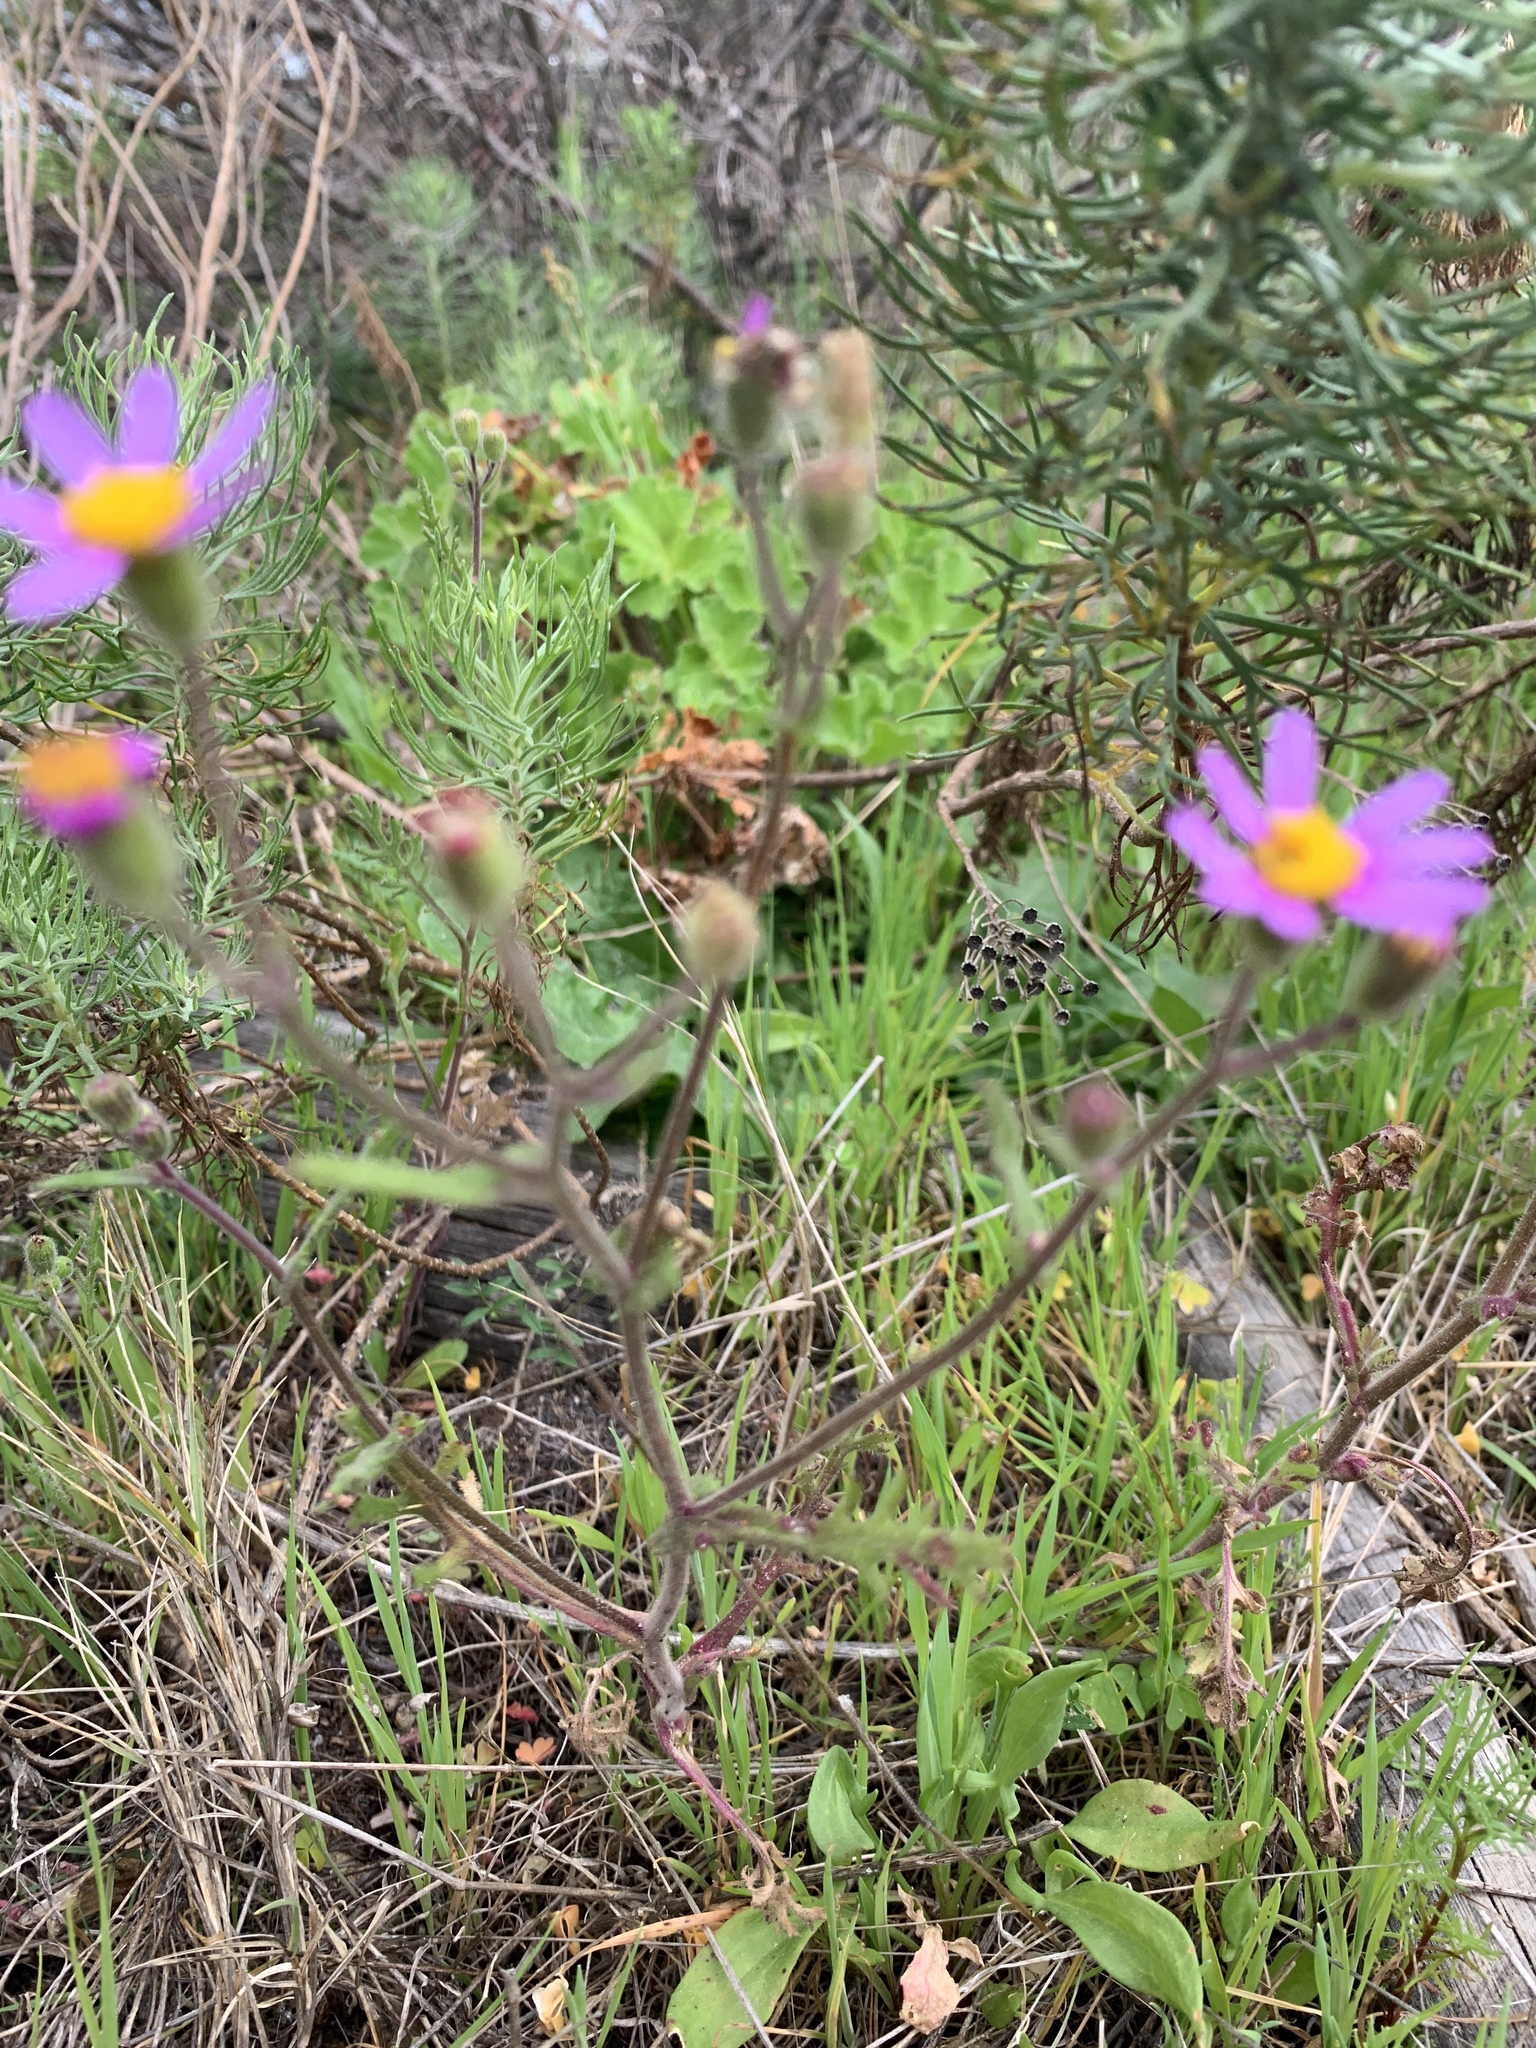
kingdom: Plantae
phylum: Tracheophyta
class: Magnoliopsida
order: Asterales
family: Asteraceae
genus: Senecio
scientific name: Senecio arenarius
